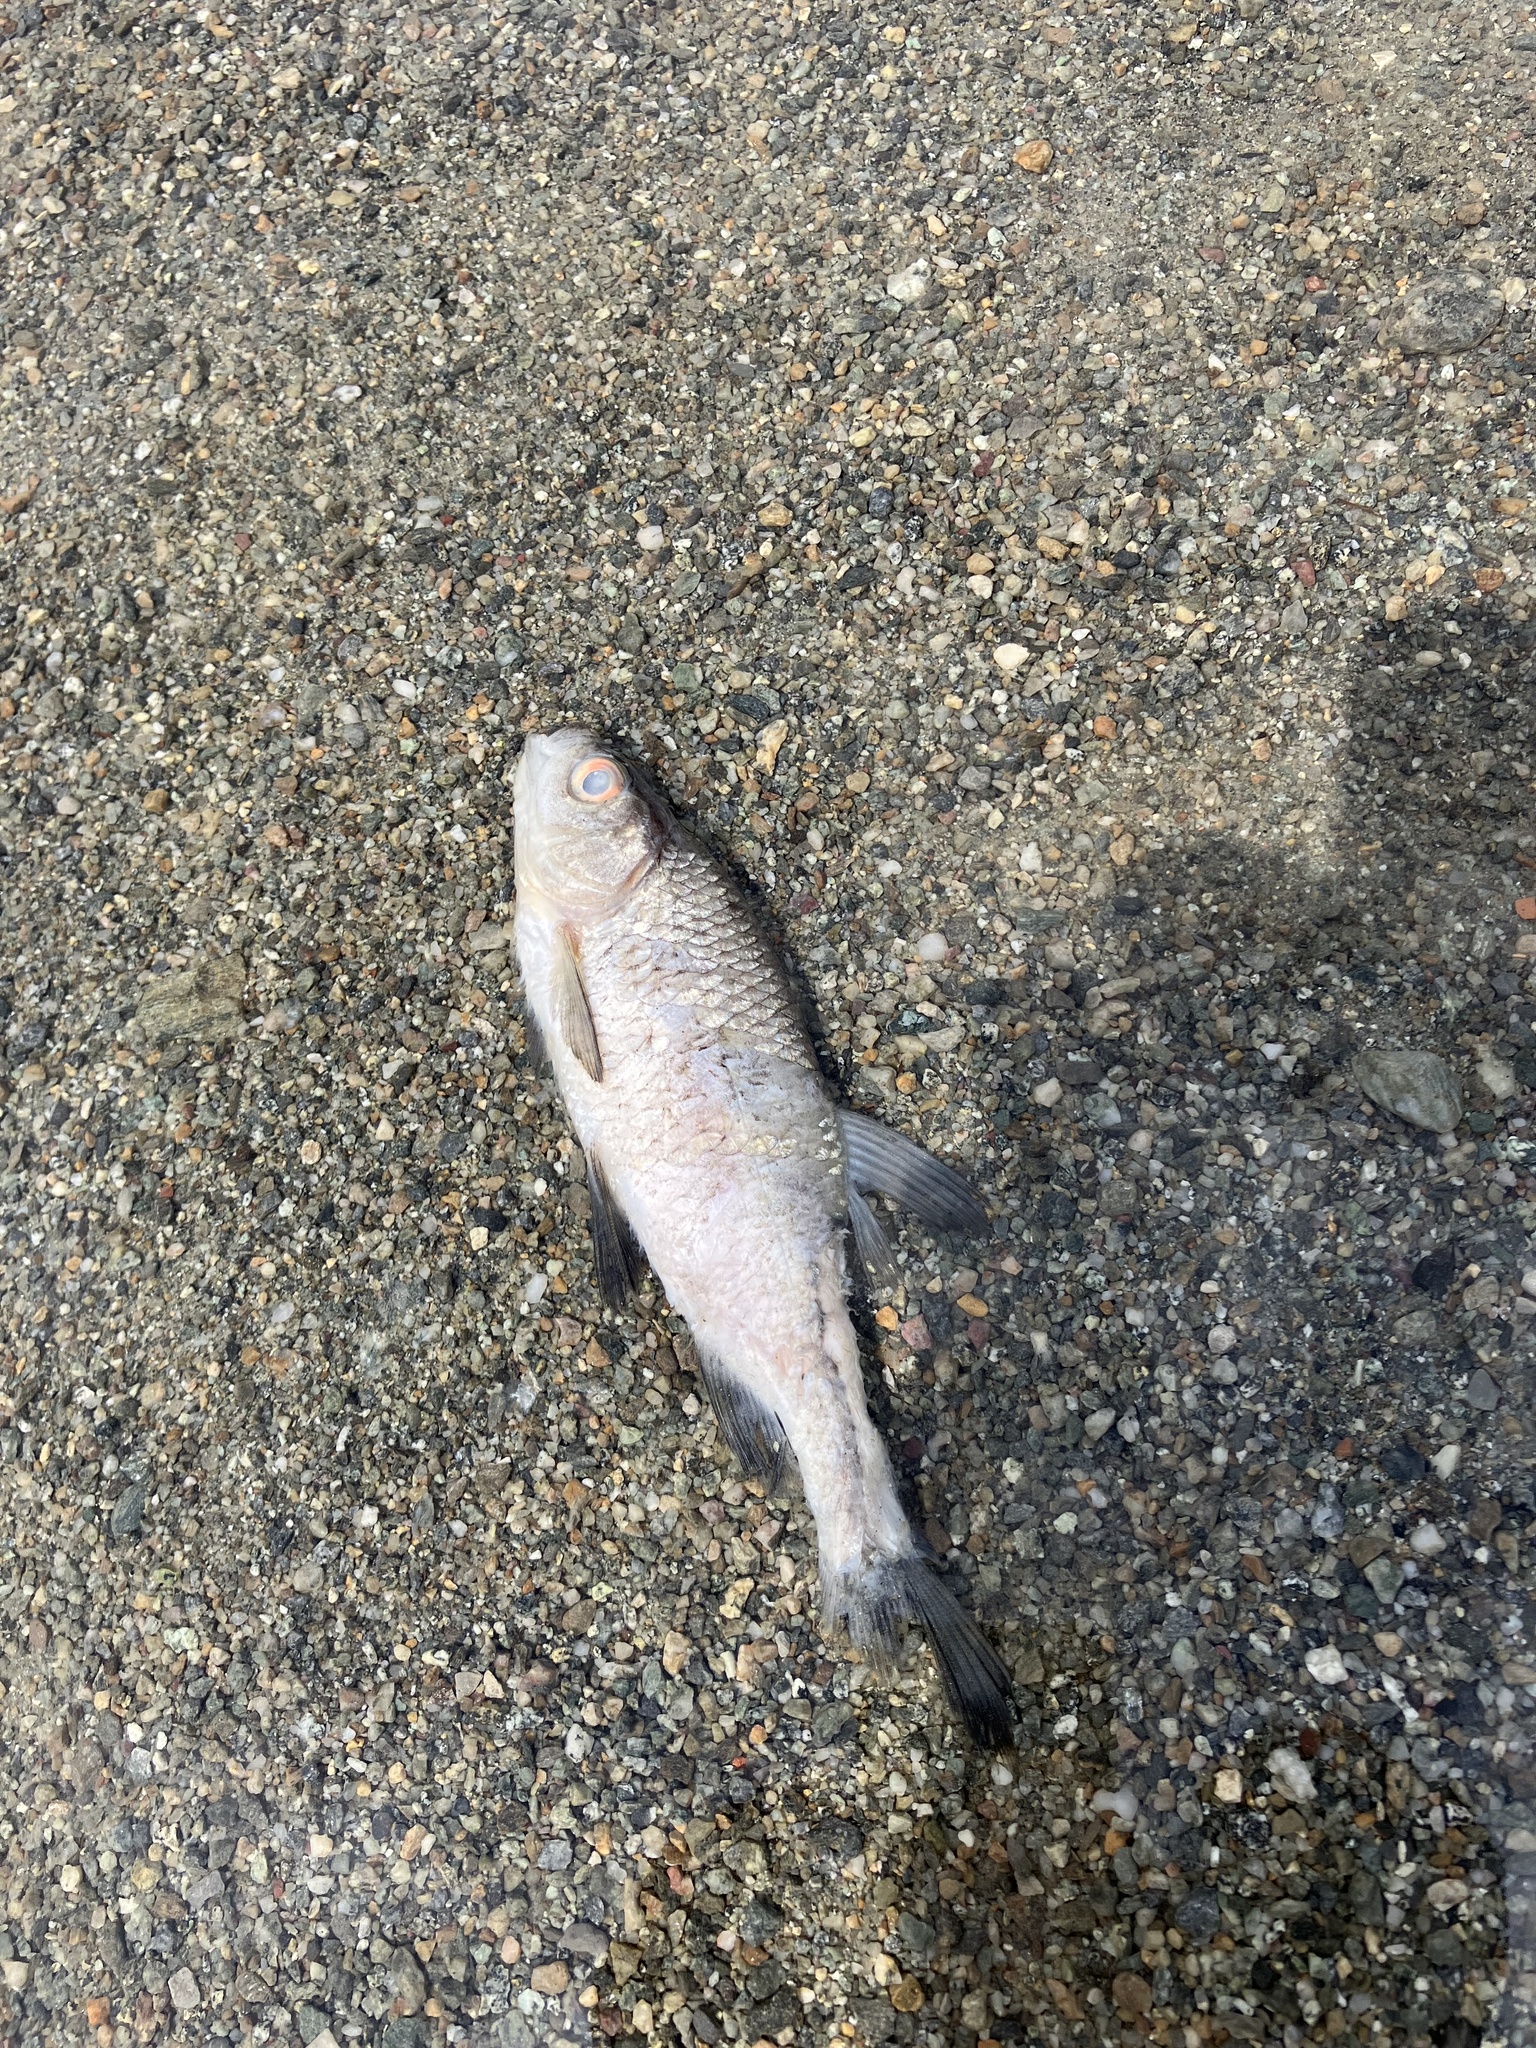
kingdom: Animalia
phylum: Chordata
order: Cypriniformes
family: Cyprinidae
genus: Rutilus
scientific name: Rutilus rutilus
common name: Roach
